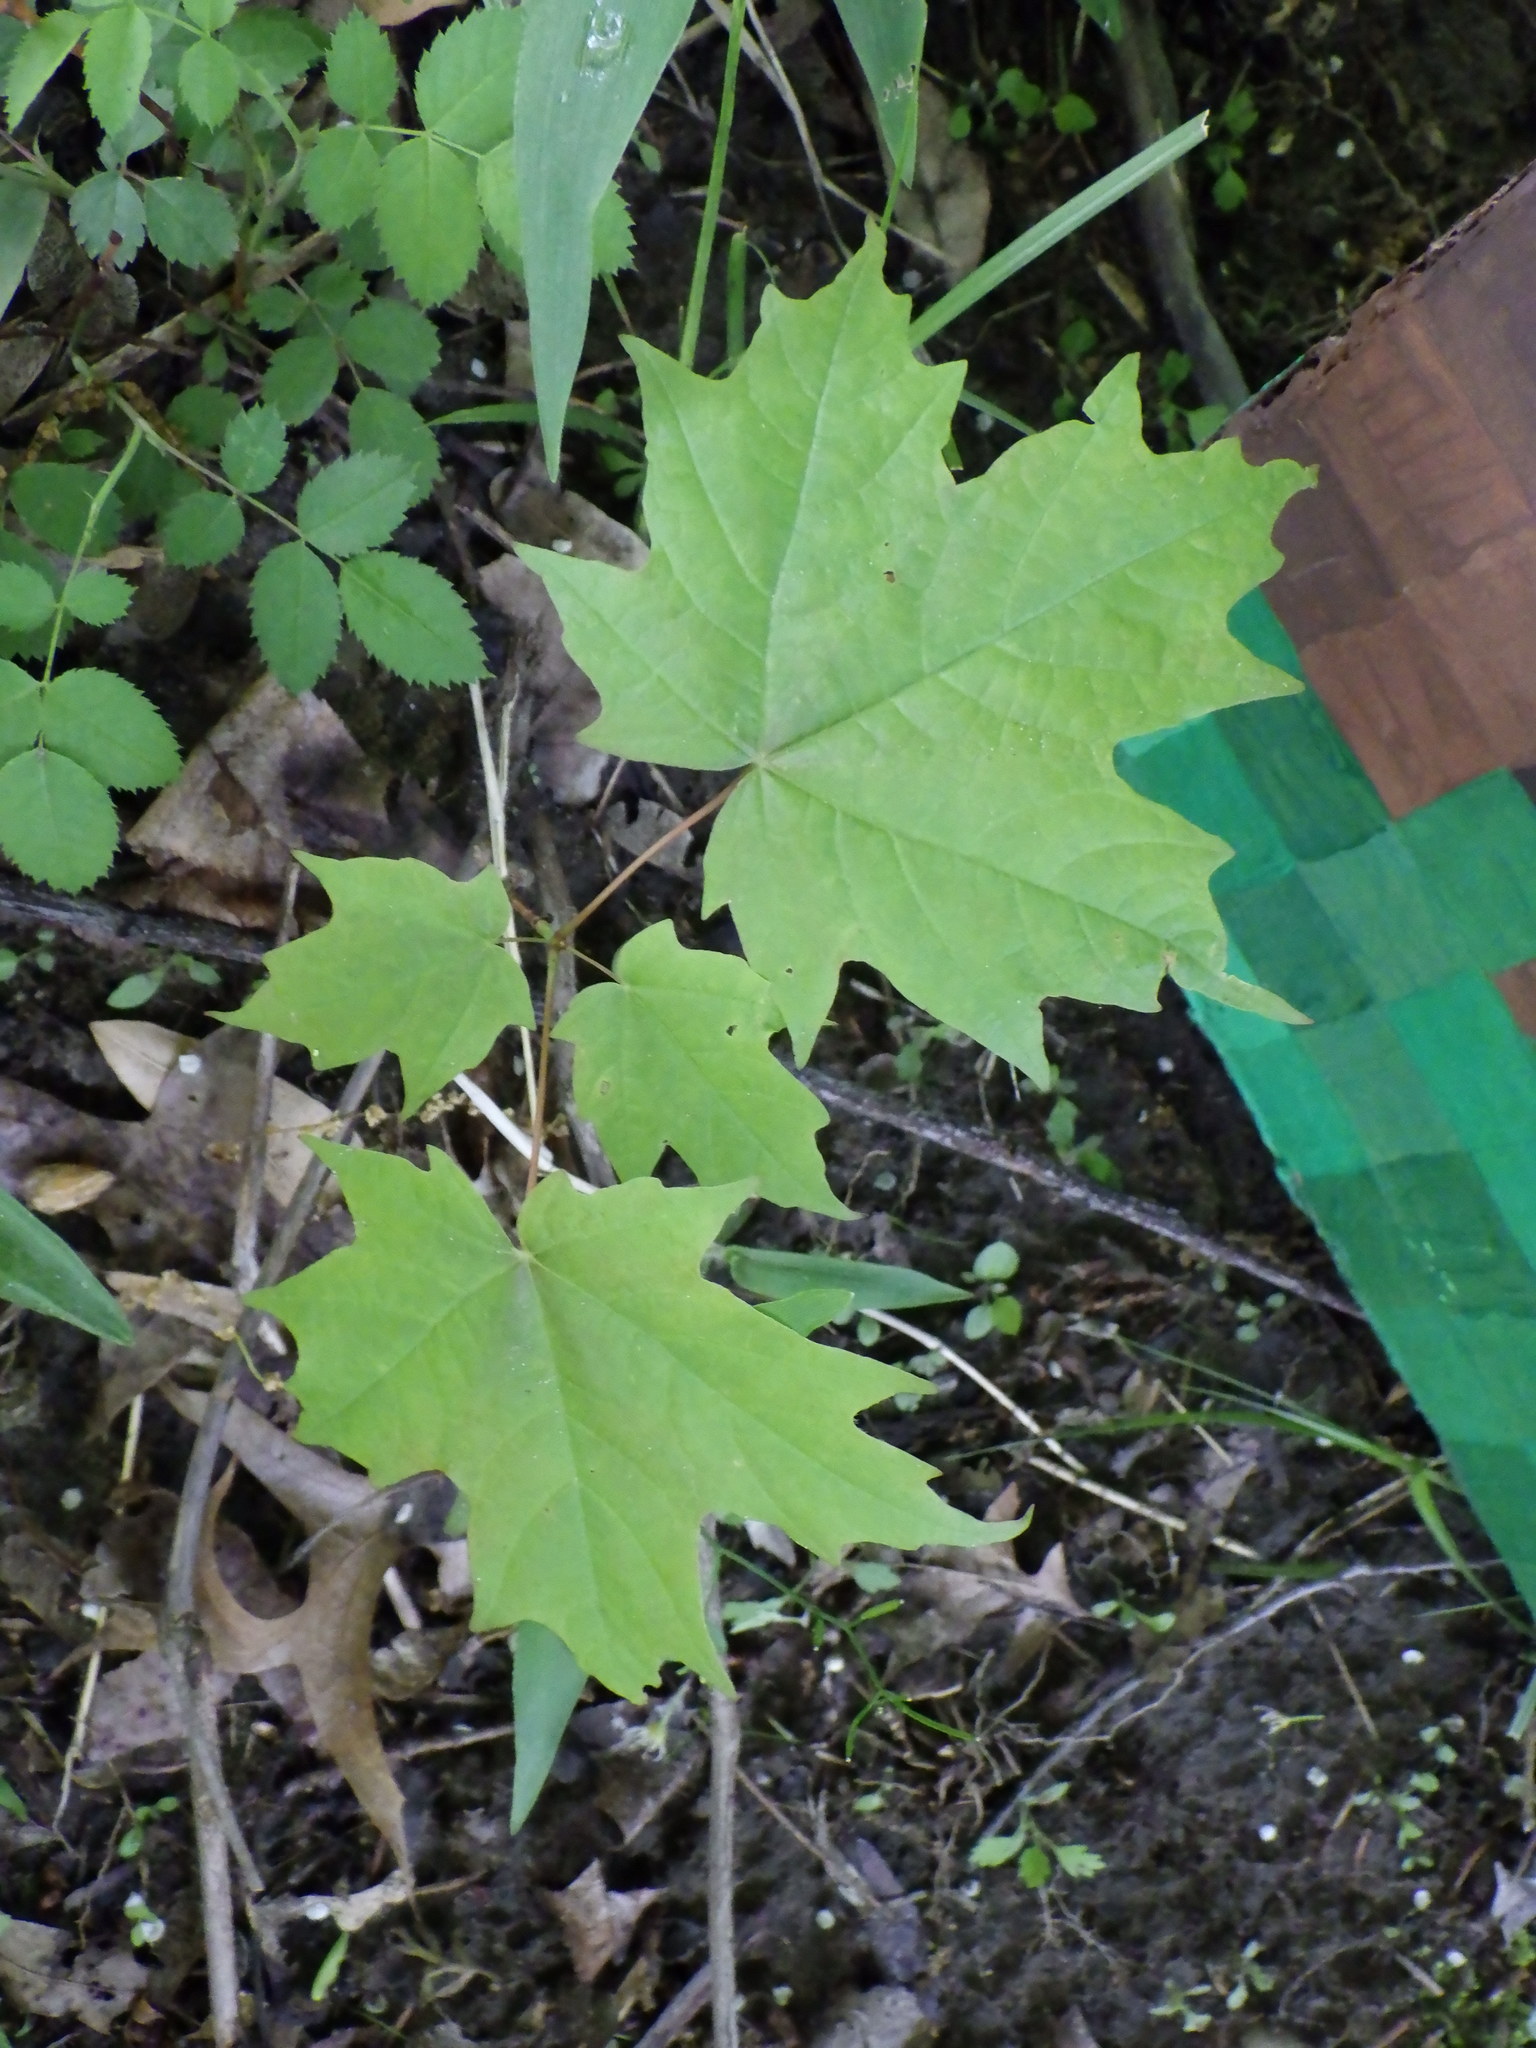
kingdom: Plantae
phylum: Tracheophyta
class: Magnoliopsida
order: Sapindales
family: Sapindaceae
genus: Acer
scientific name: Acer saccharum
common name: Sugar maple
